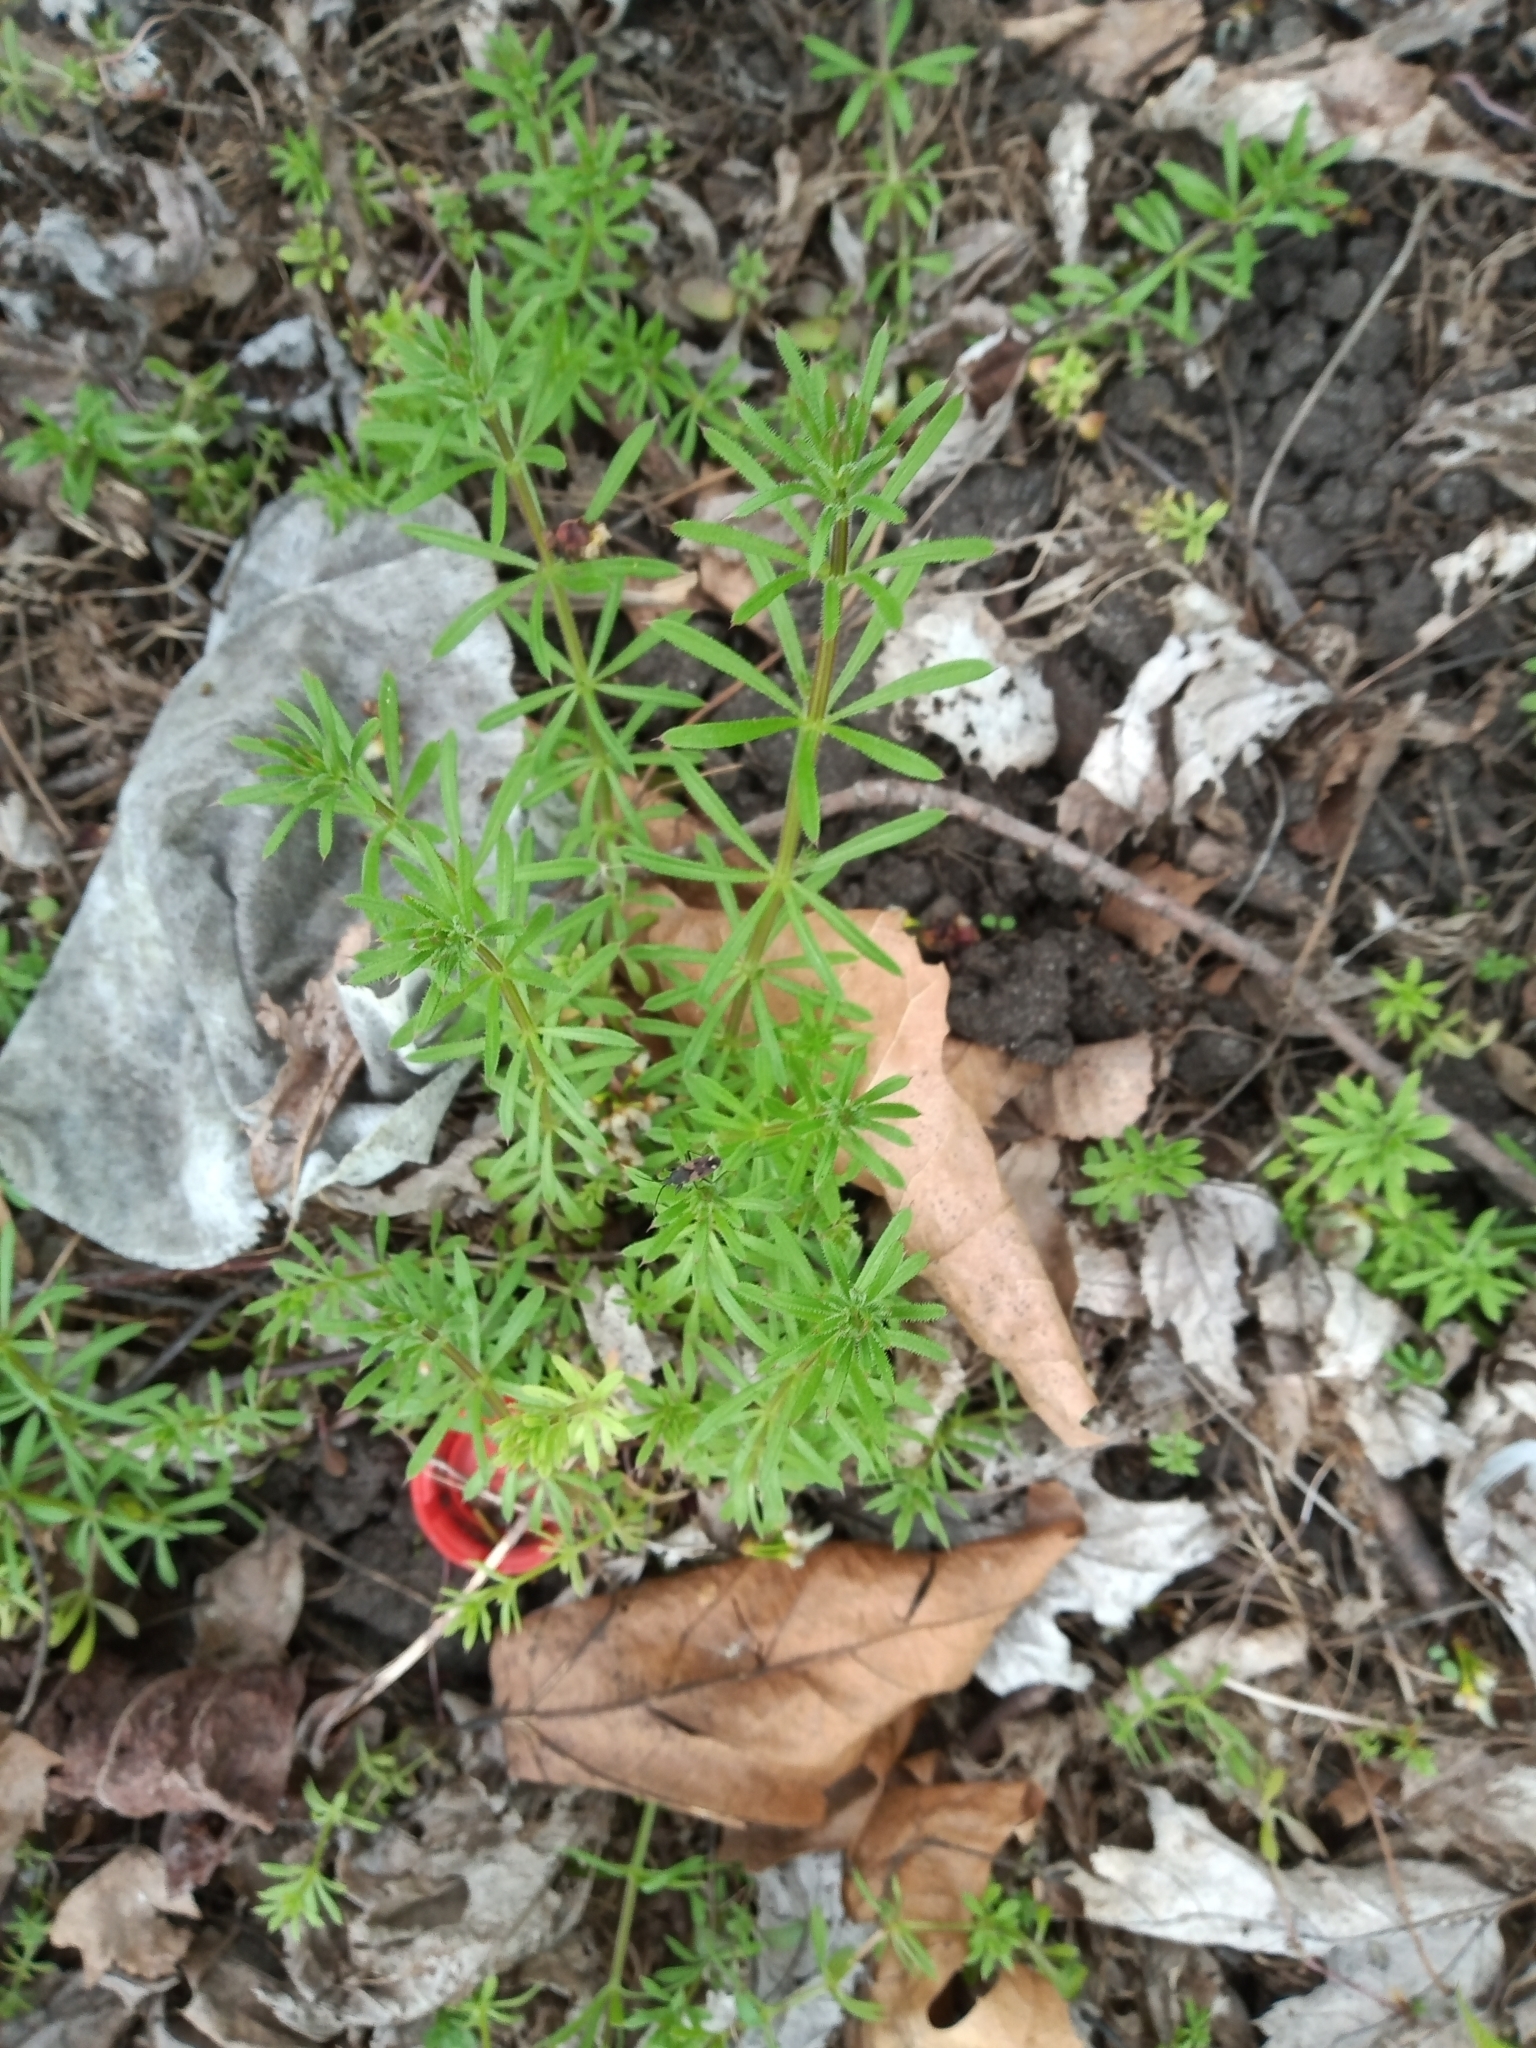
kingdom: Plantae
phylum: Tracheophyta
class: Magnoliopsida
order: Gentianales
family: Rubiaceae
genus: Galium
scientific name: Galium aparine
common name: Cleavers
